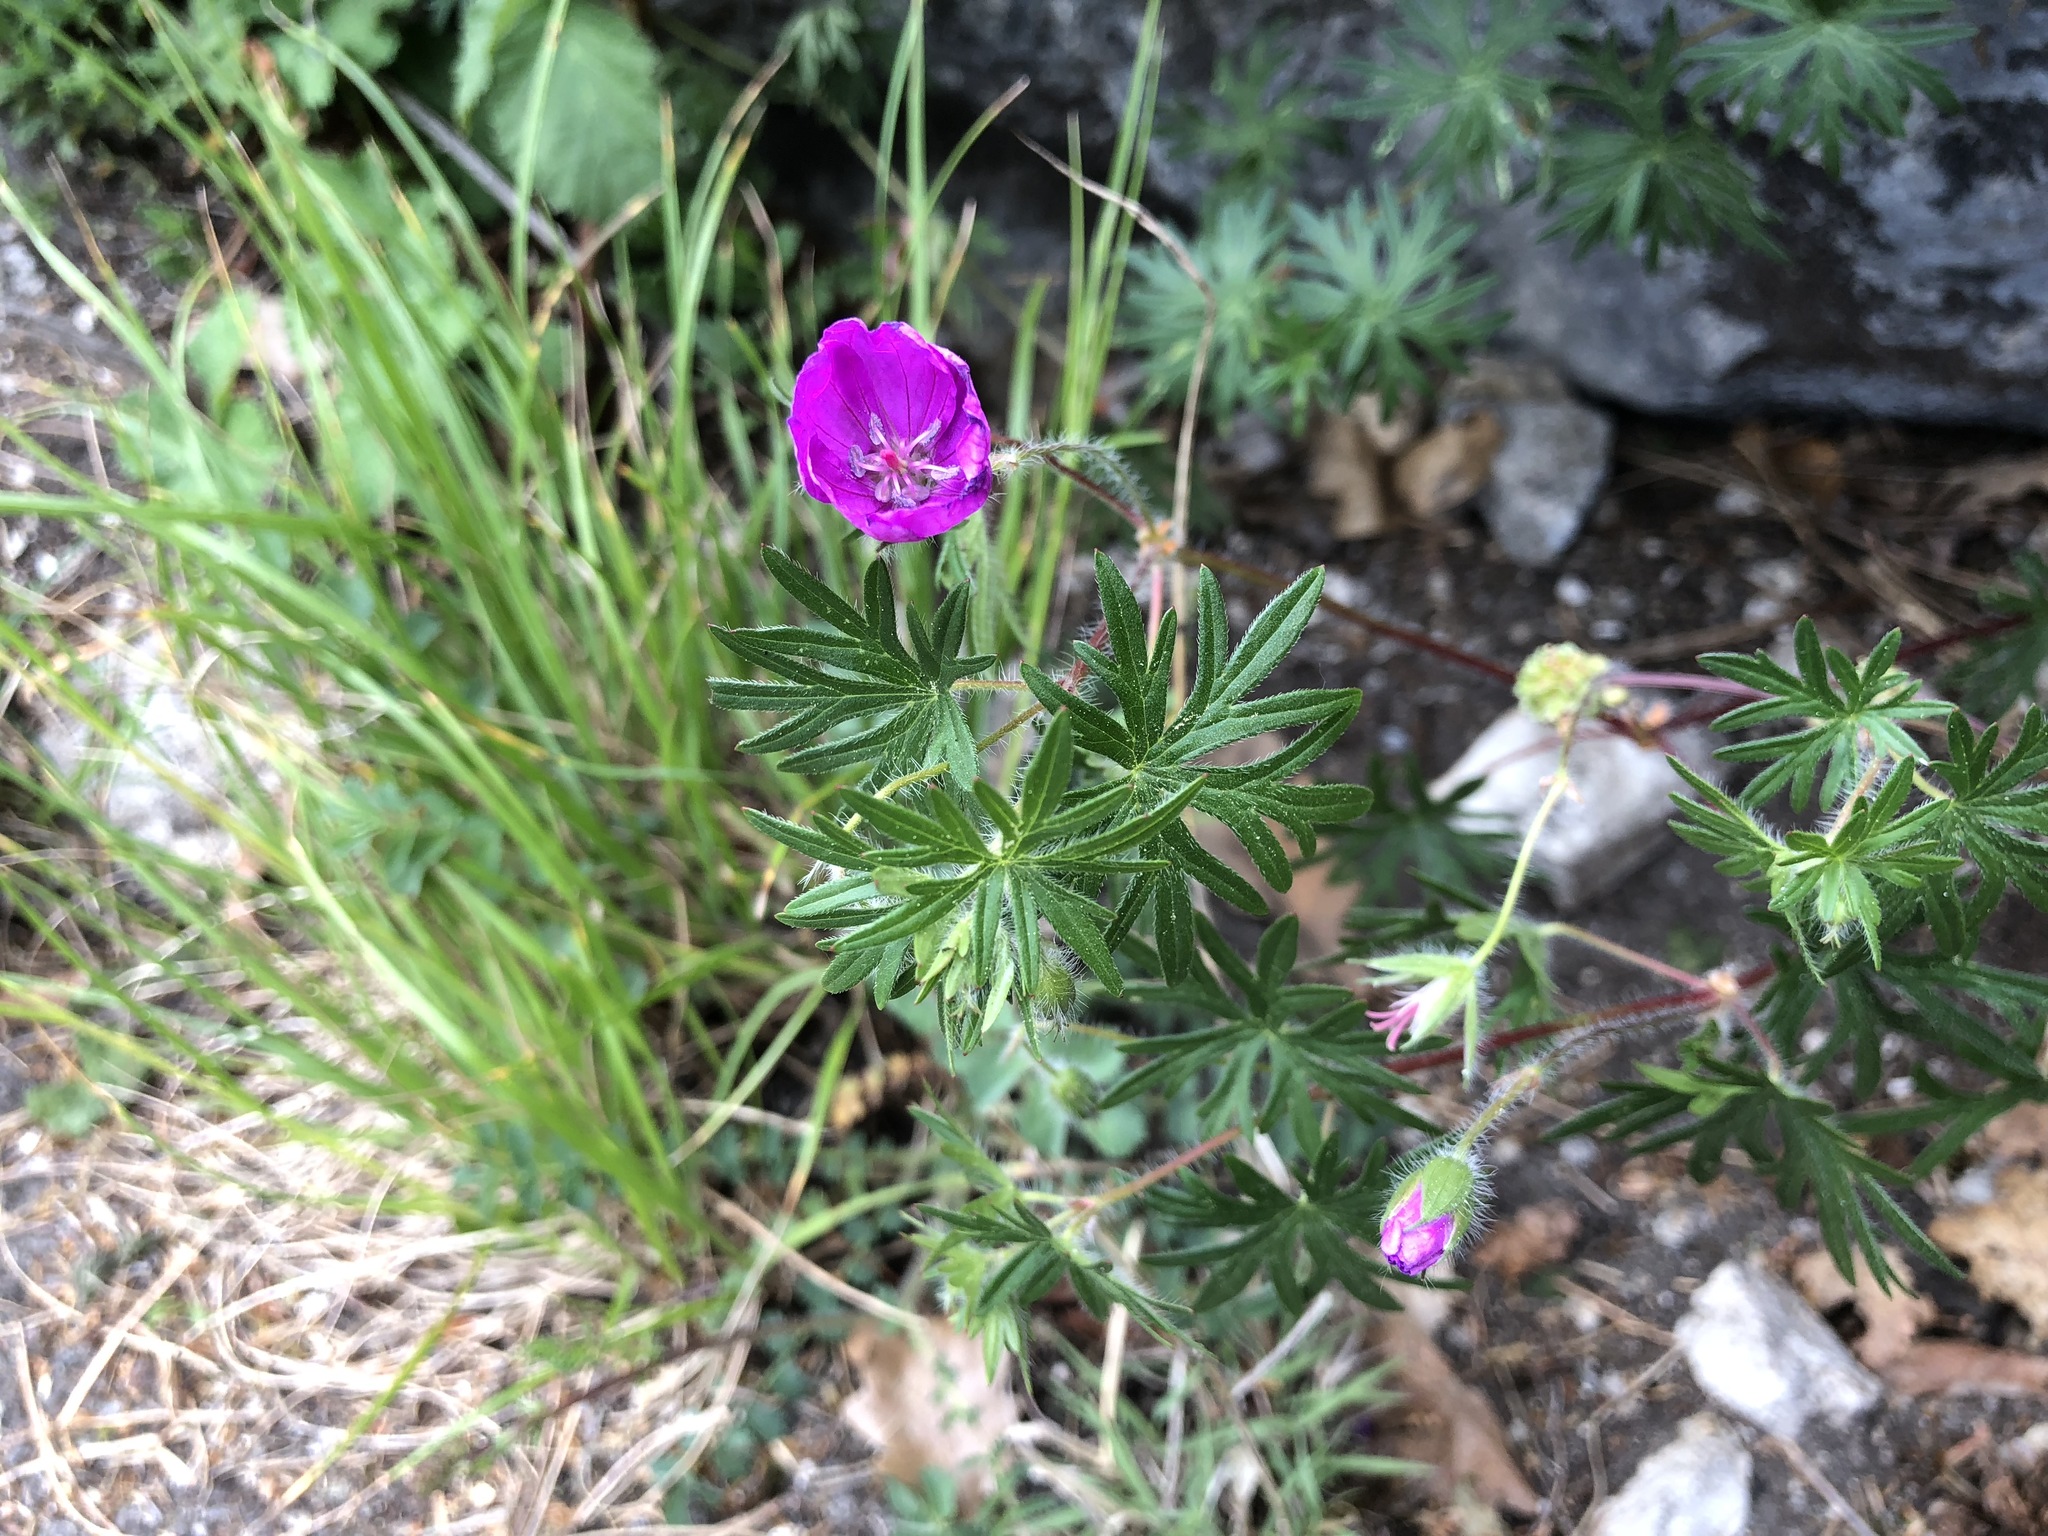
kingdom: Plantae
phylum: Tracheophyta
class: Magnoliopsida
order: Geraniales
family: Geraniaceae
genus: Geranium
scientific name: Geranium sanguineum
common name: Bloody crane's-bill
